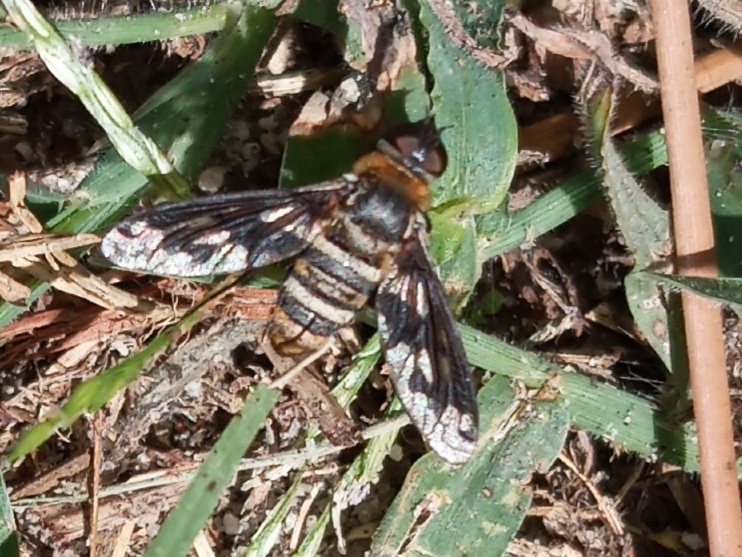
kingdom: Animalia
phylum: Arthropoda
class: Insecta
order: Diptera
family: Bombyliidae
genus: Exoprosopa
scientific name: Exoprosopa fascipennis
